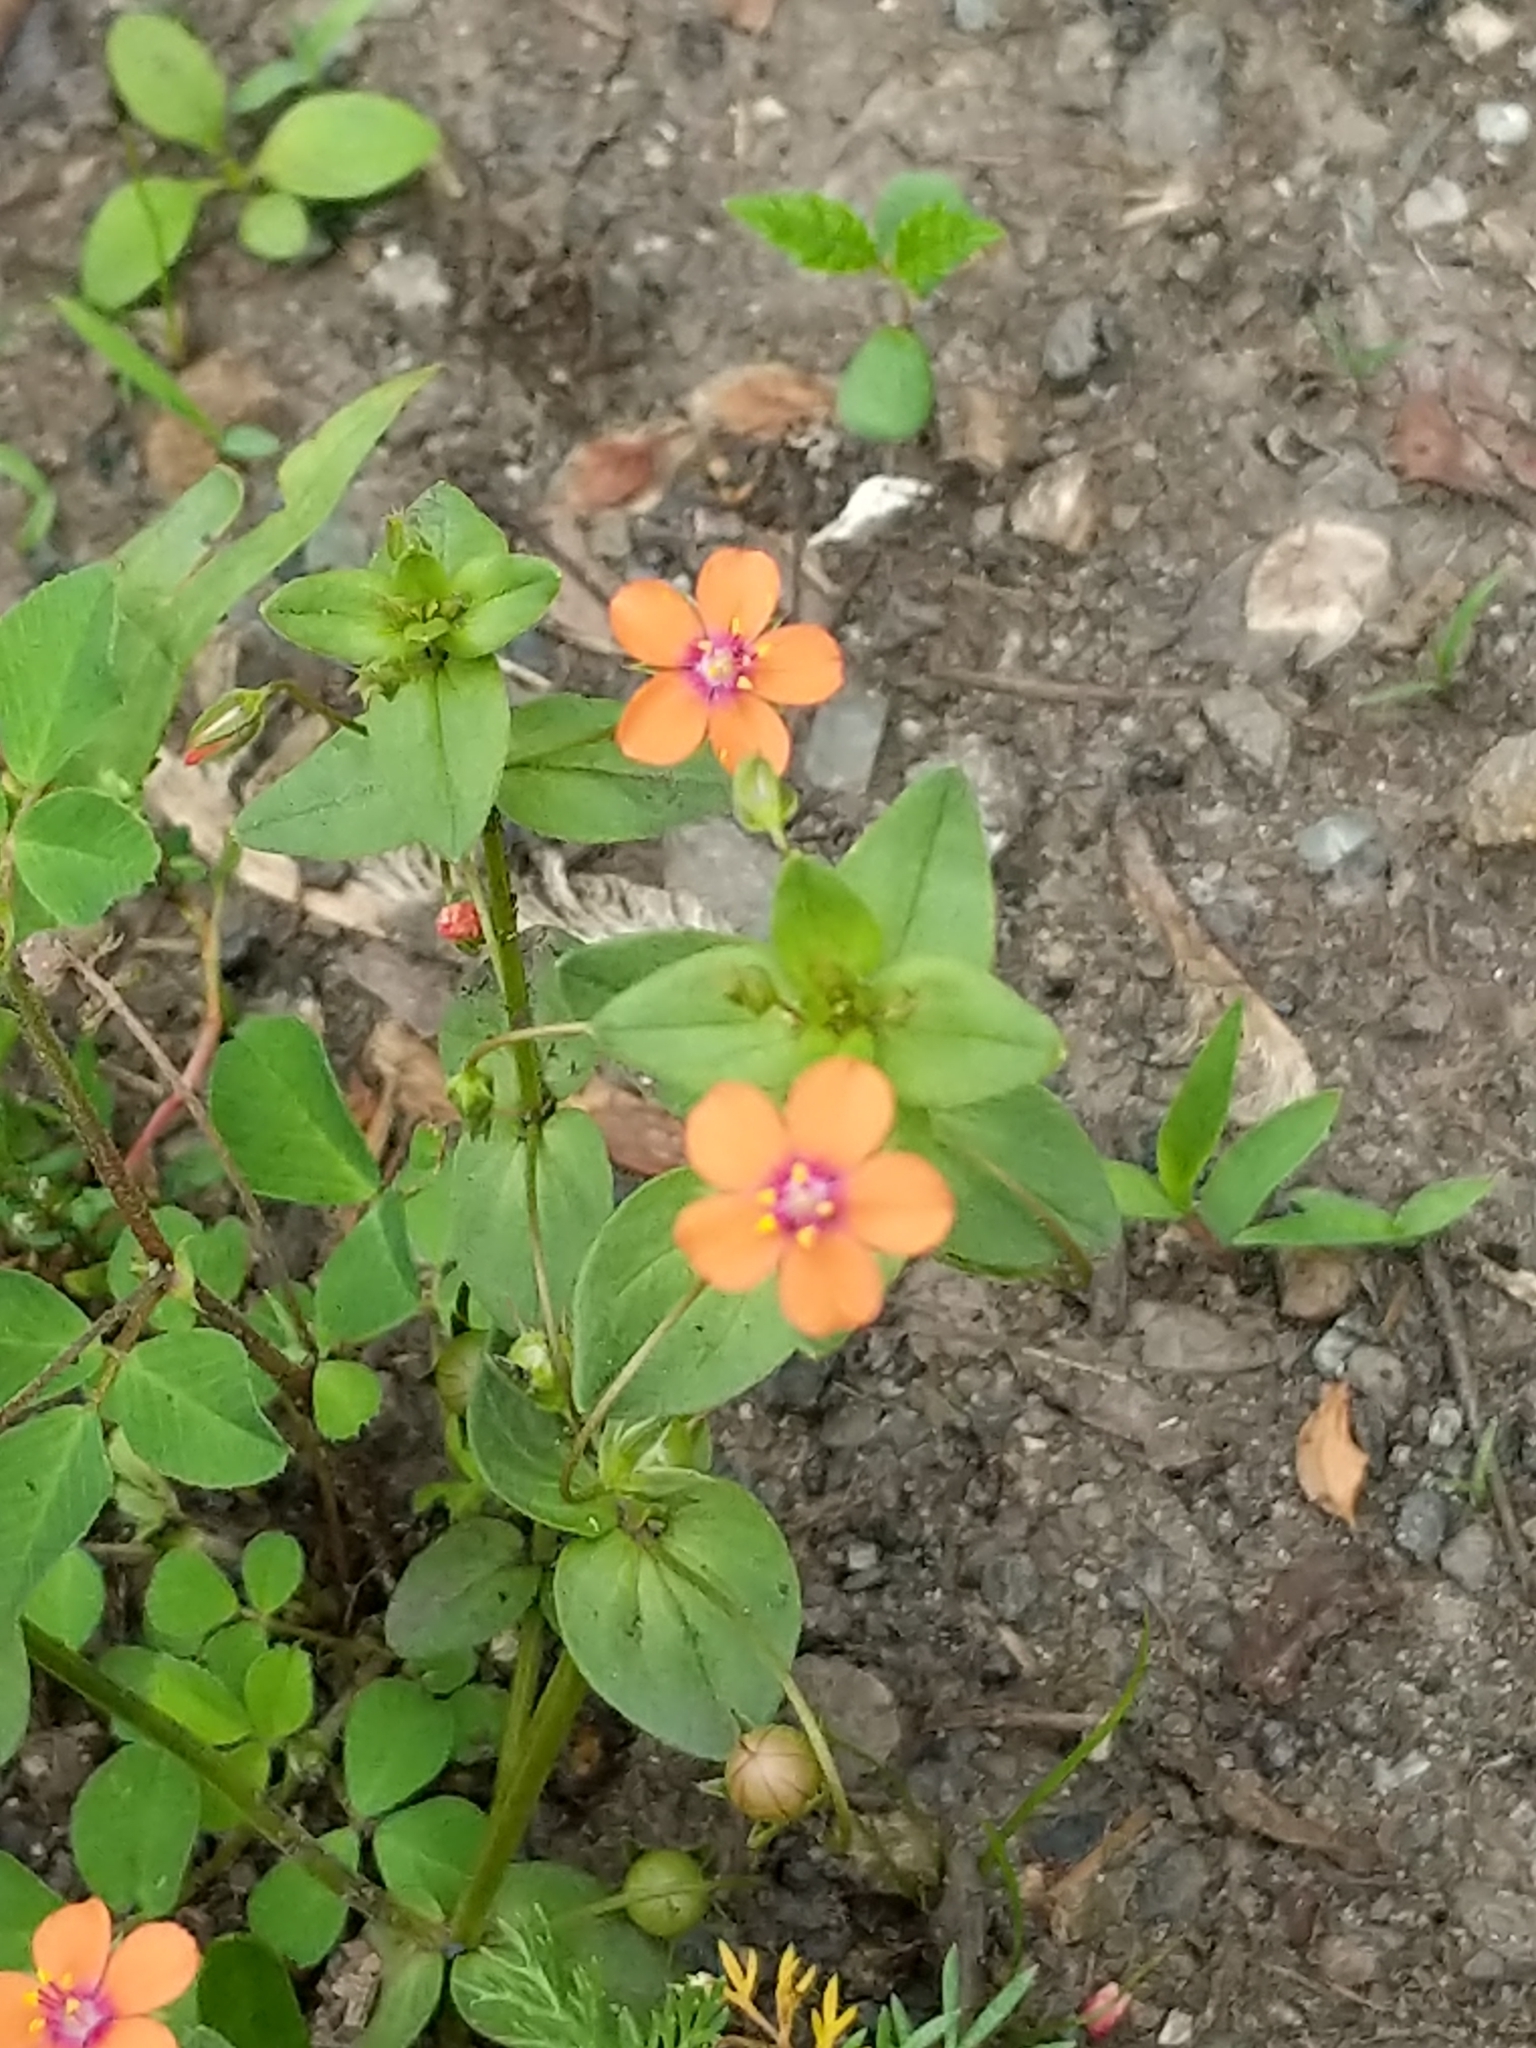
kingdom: Plantae
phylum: Tracheophyta
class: Magnoliopsida
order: Ericales
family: Primulaceae
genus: Lysimachia
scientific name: Lysimachia arvensis
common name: Scarlet pimpernel
